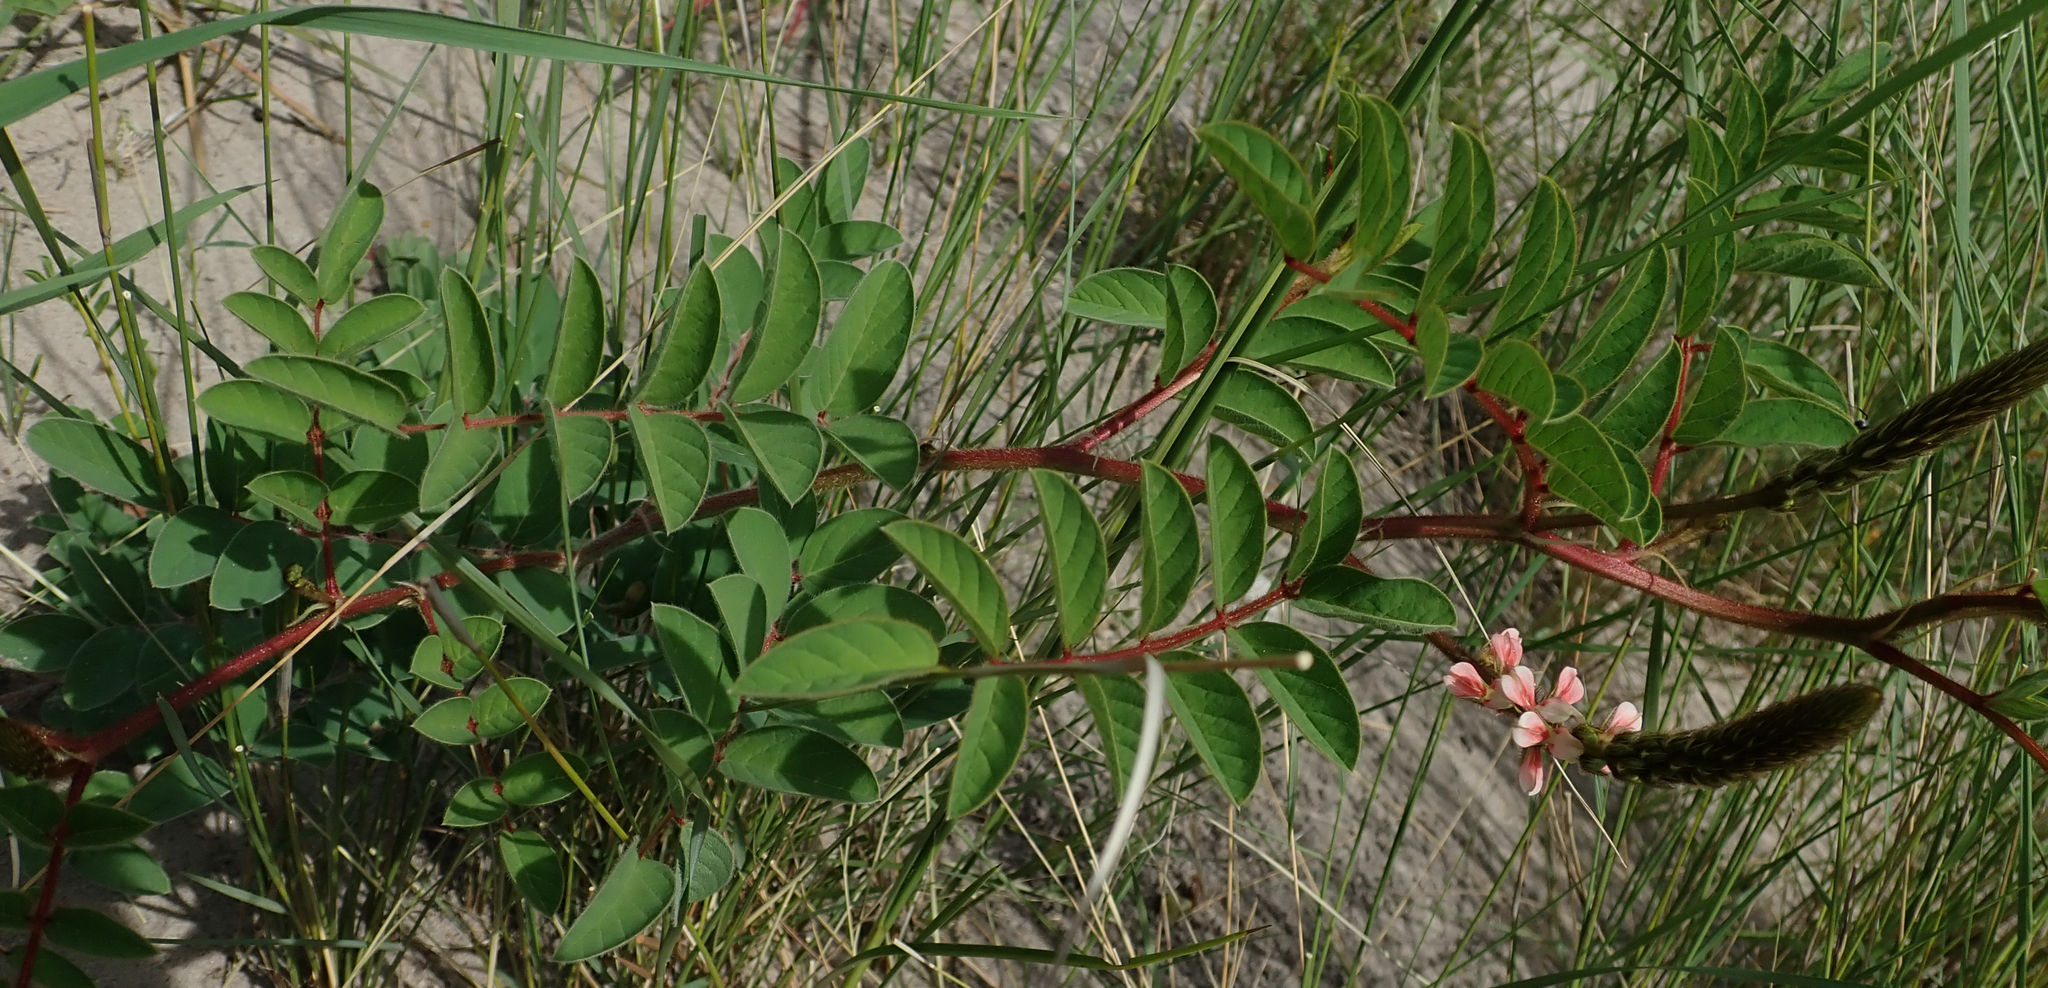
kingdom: Plantae
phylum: Tracheophyta
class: Magnoliopsida
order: Fabales
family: Fabaceae
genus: Indigofera
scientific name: Indigofera astragalina
